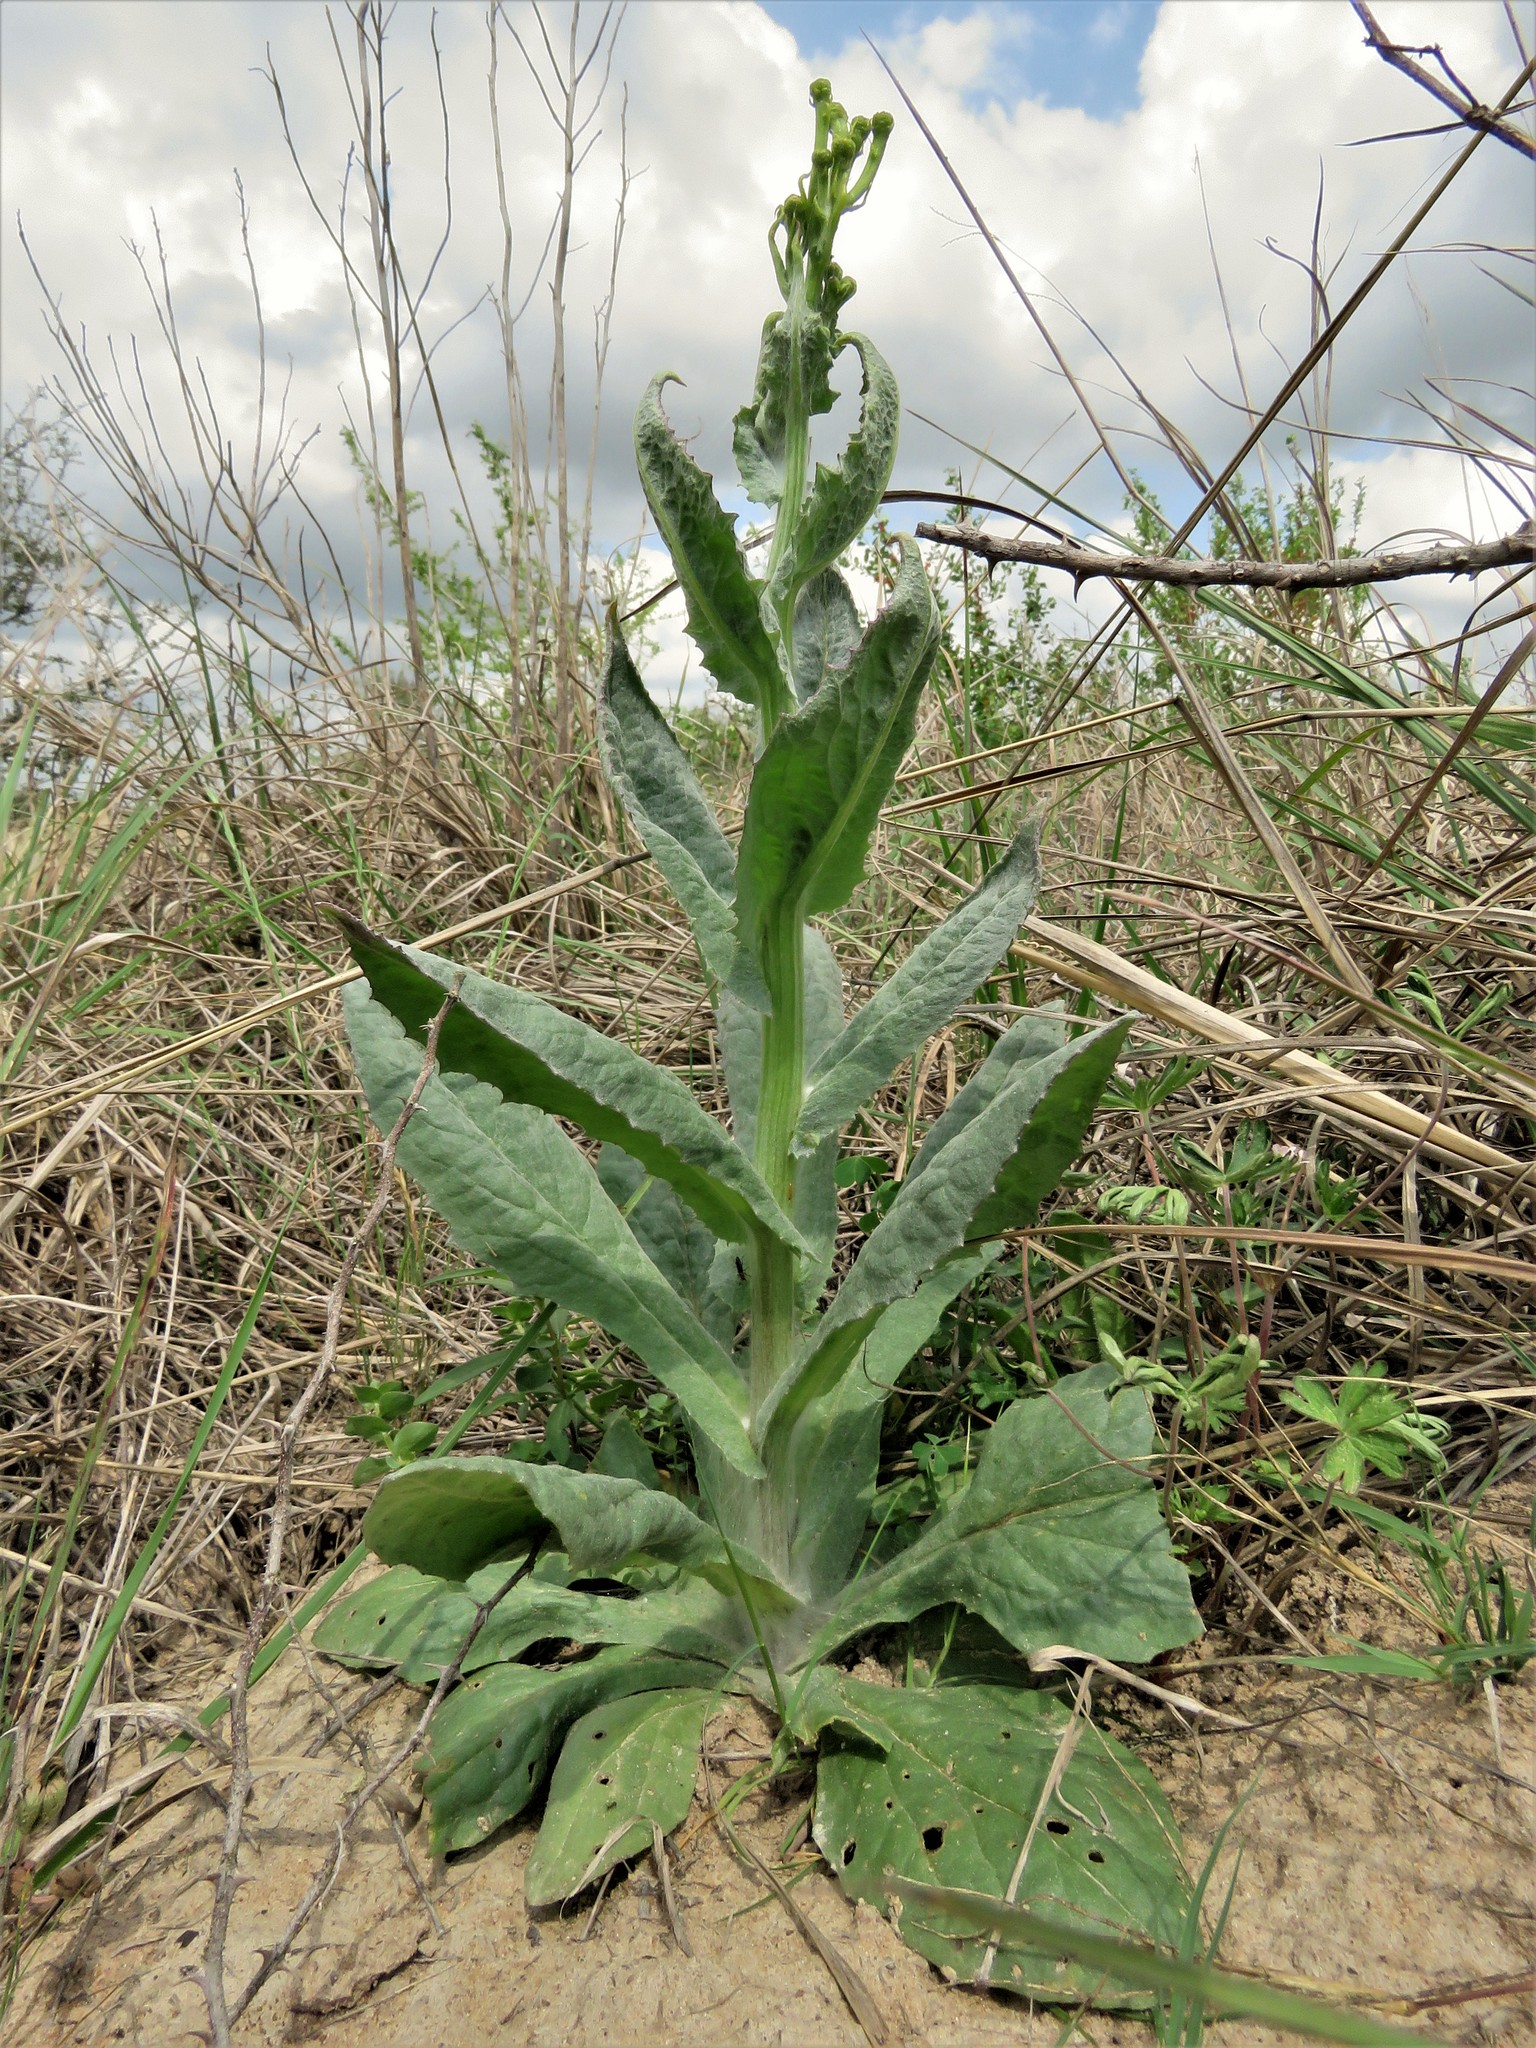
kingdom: Plantae
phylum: Tracheophyta
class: Magnoliopsida
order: Asterales
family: Asteraceae
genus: Senecio
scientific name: Senecio ampullaceus
